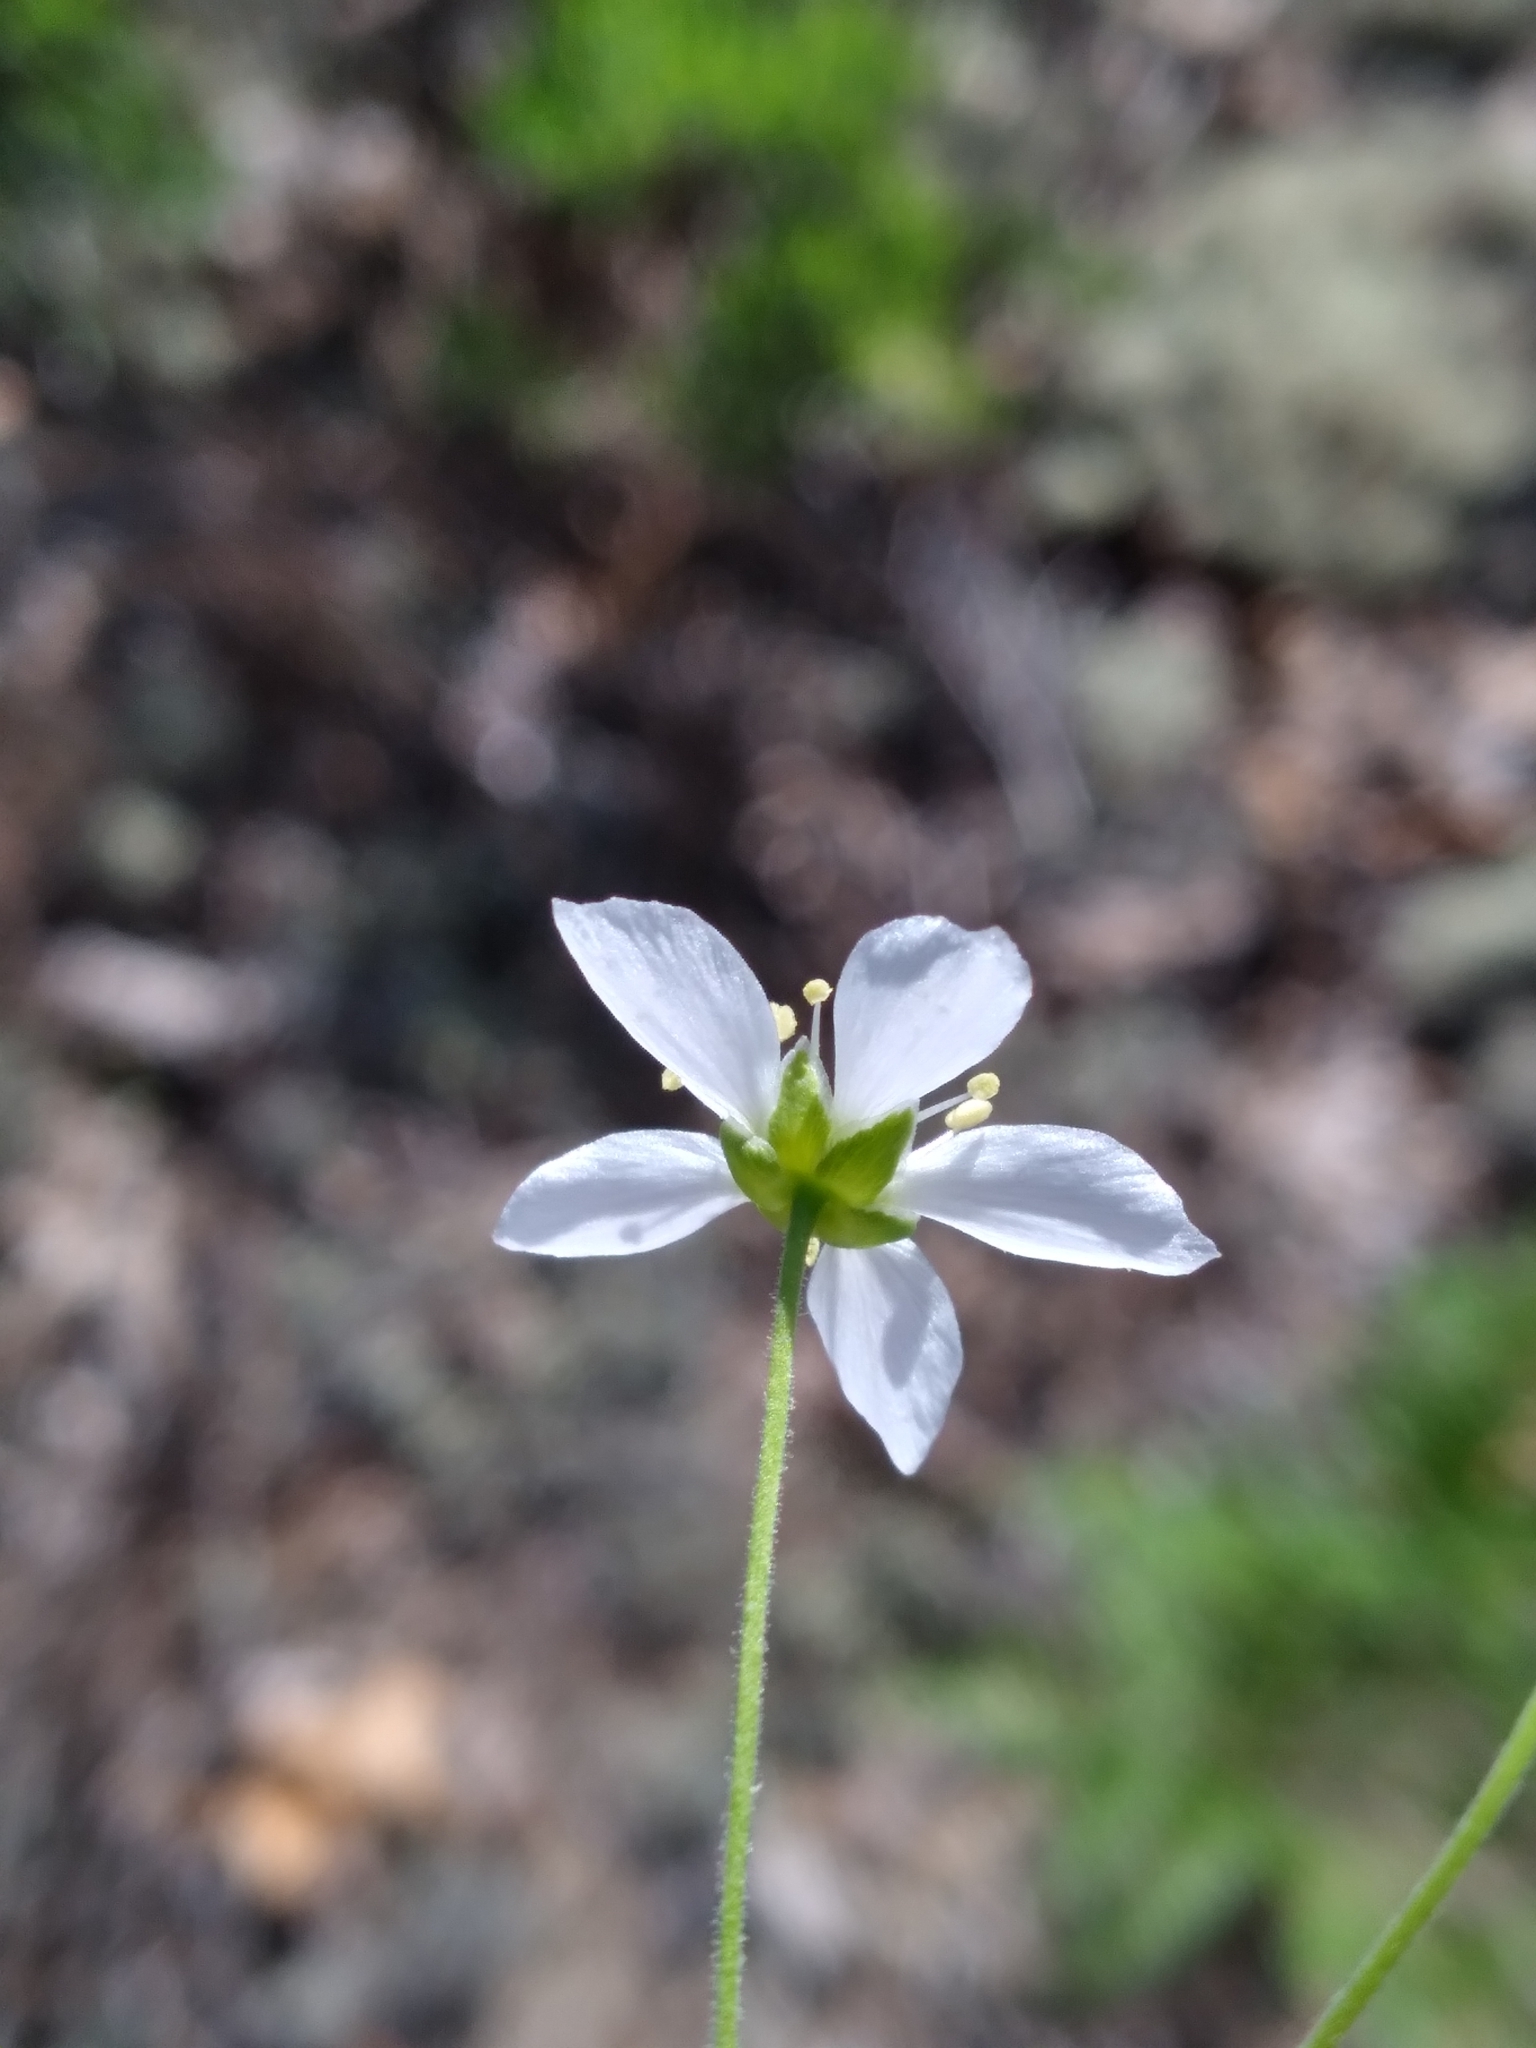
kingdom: Plantae
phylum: Tracheophyta
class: Magnoliopsida
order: Caryophyllales
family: Caryophyllaceae
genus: Geocarpon
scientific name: Geocarpon carolinianum
